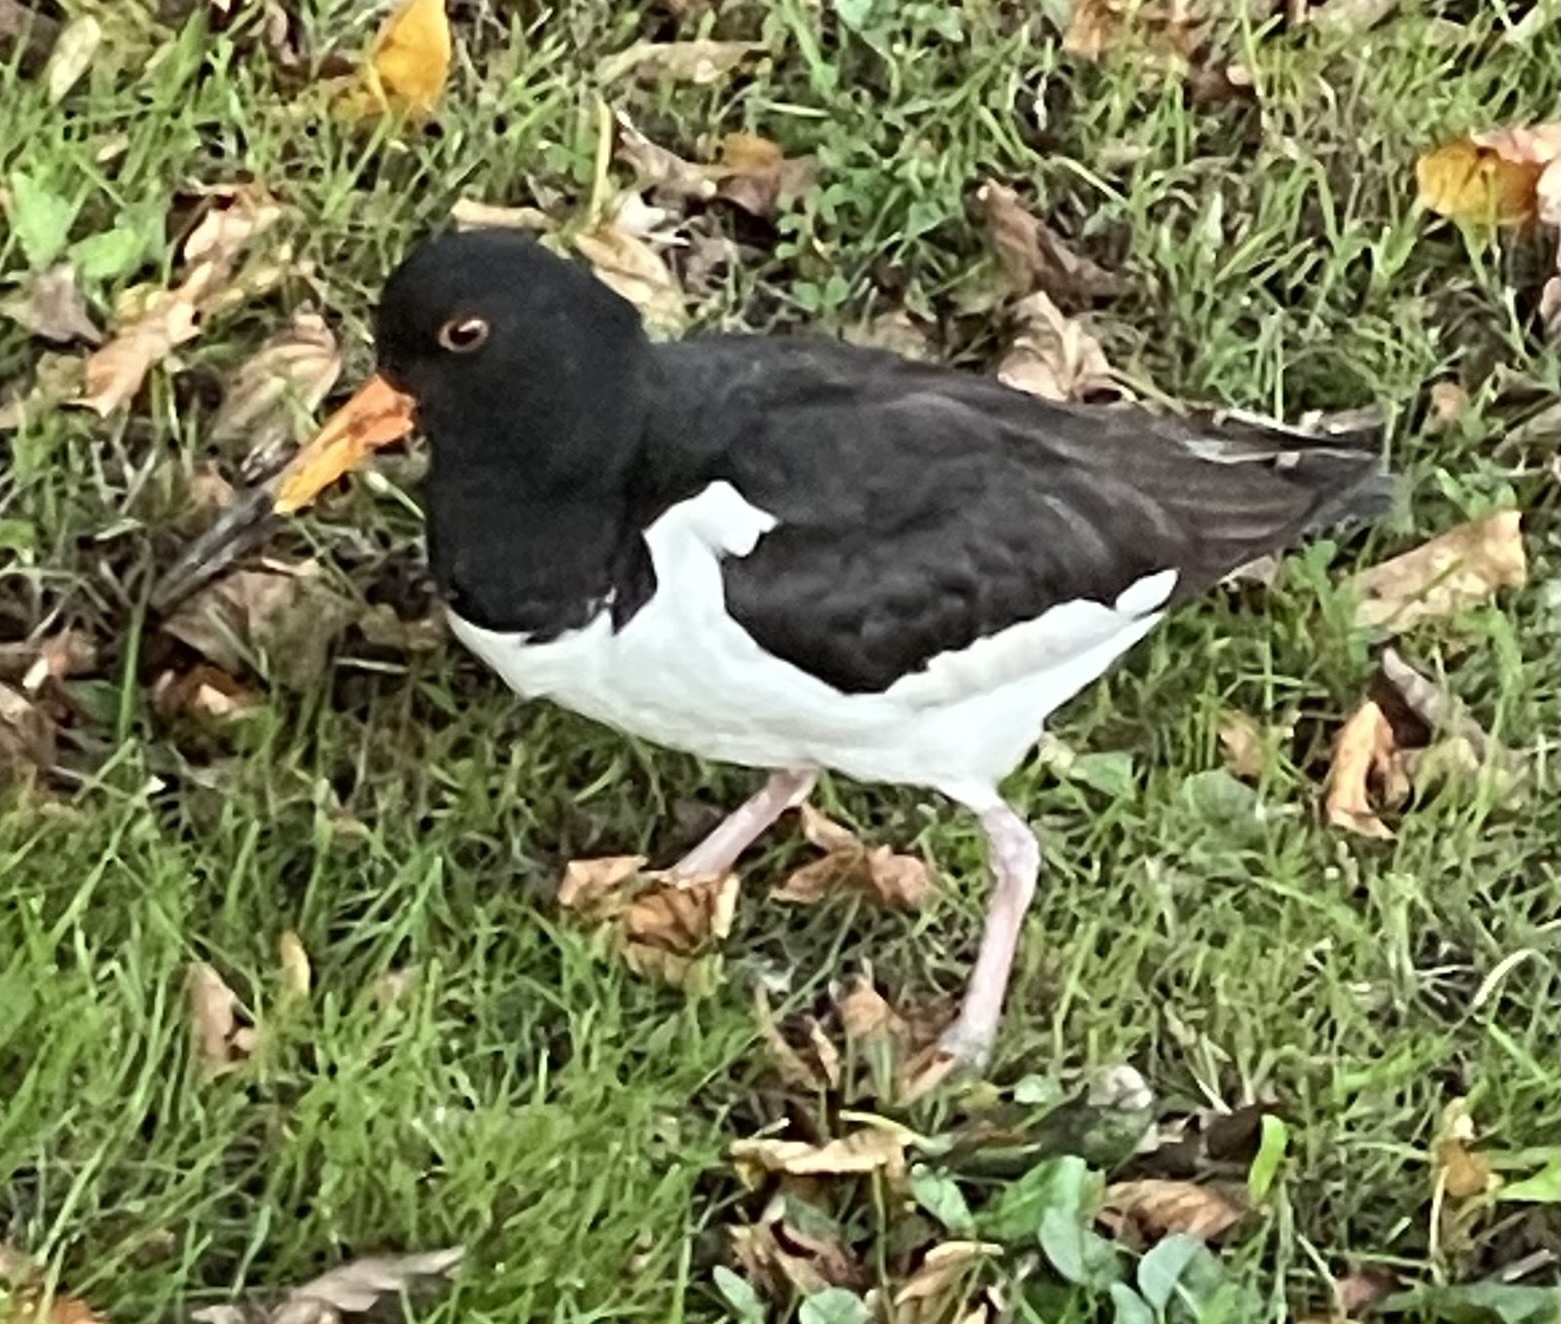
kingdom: Animalia
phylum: Chordata
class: Aves
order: Charadriiformes
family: Haematopodidae
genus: Haematopus
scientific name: Haematopus ostralegus
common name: Eurasian oystercatcher
